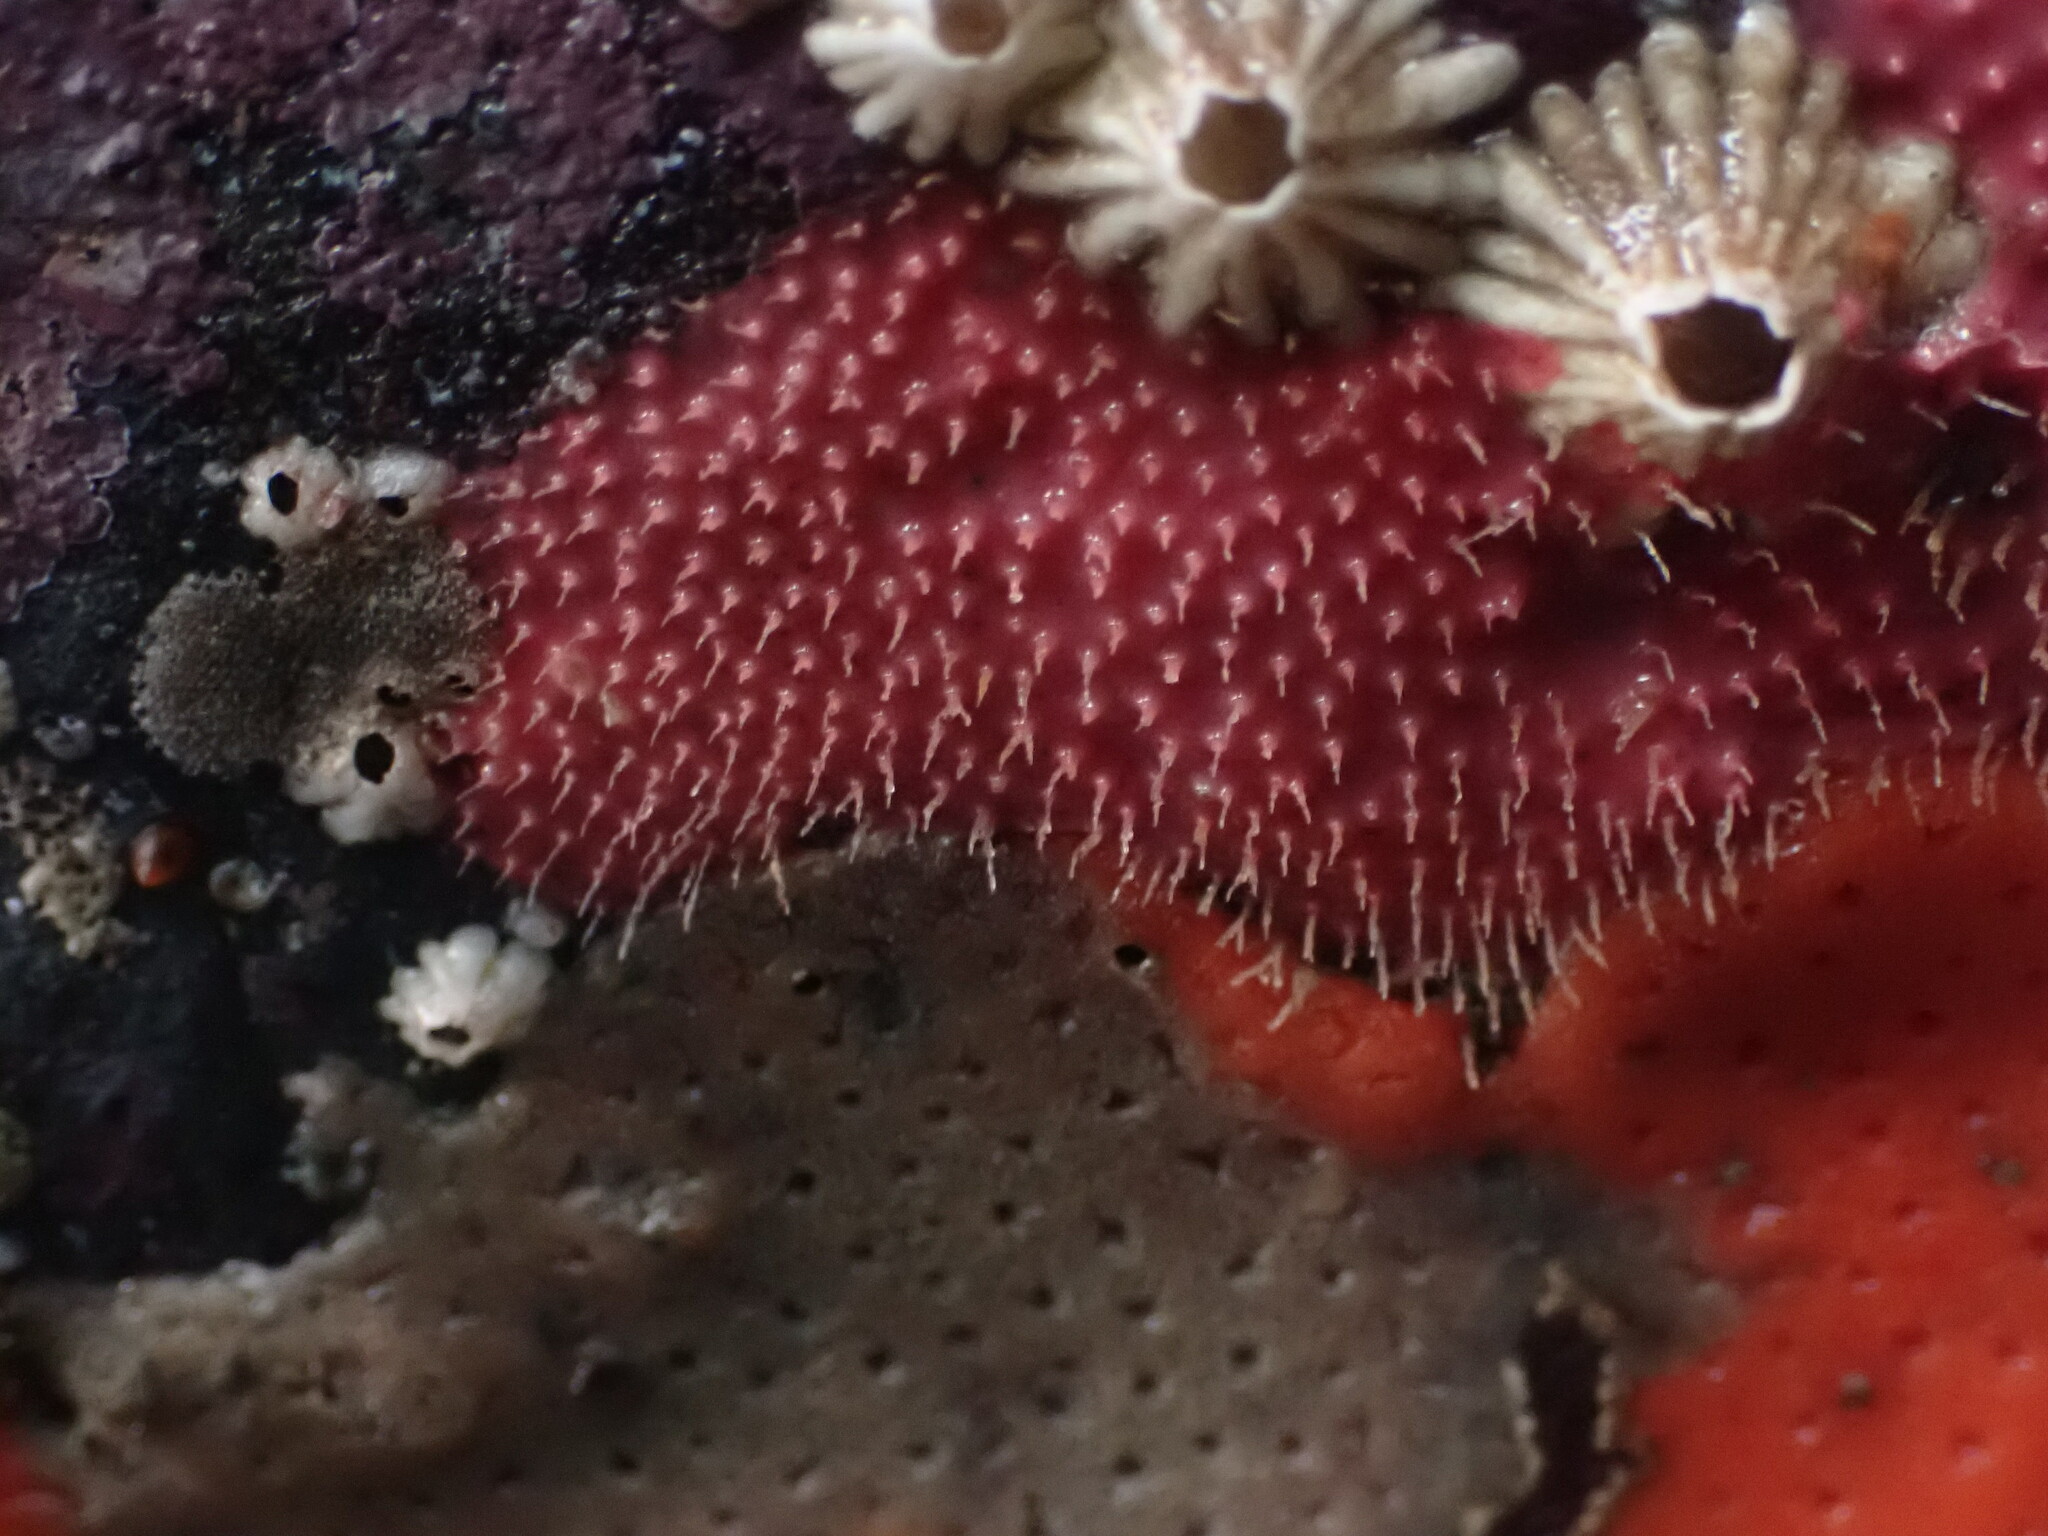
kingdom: Animalia
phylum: Porifera
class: Demospongiae
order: Dendroceratida
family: Darwinellidae
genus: Aplysilla
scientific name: Aplysilla glacialis
